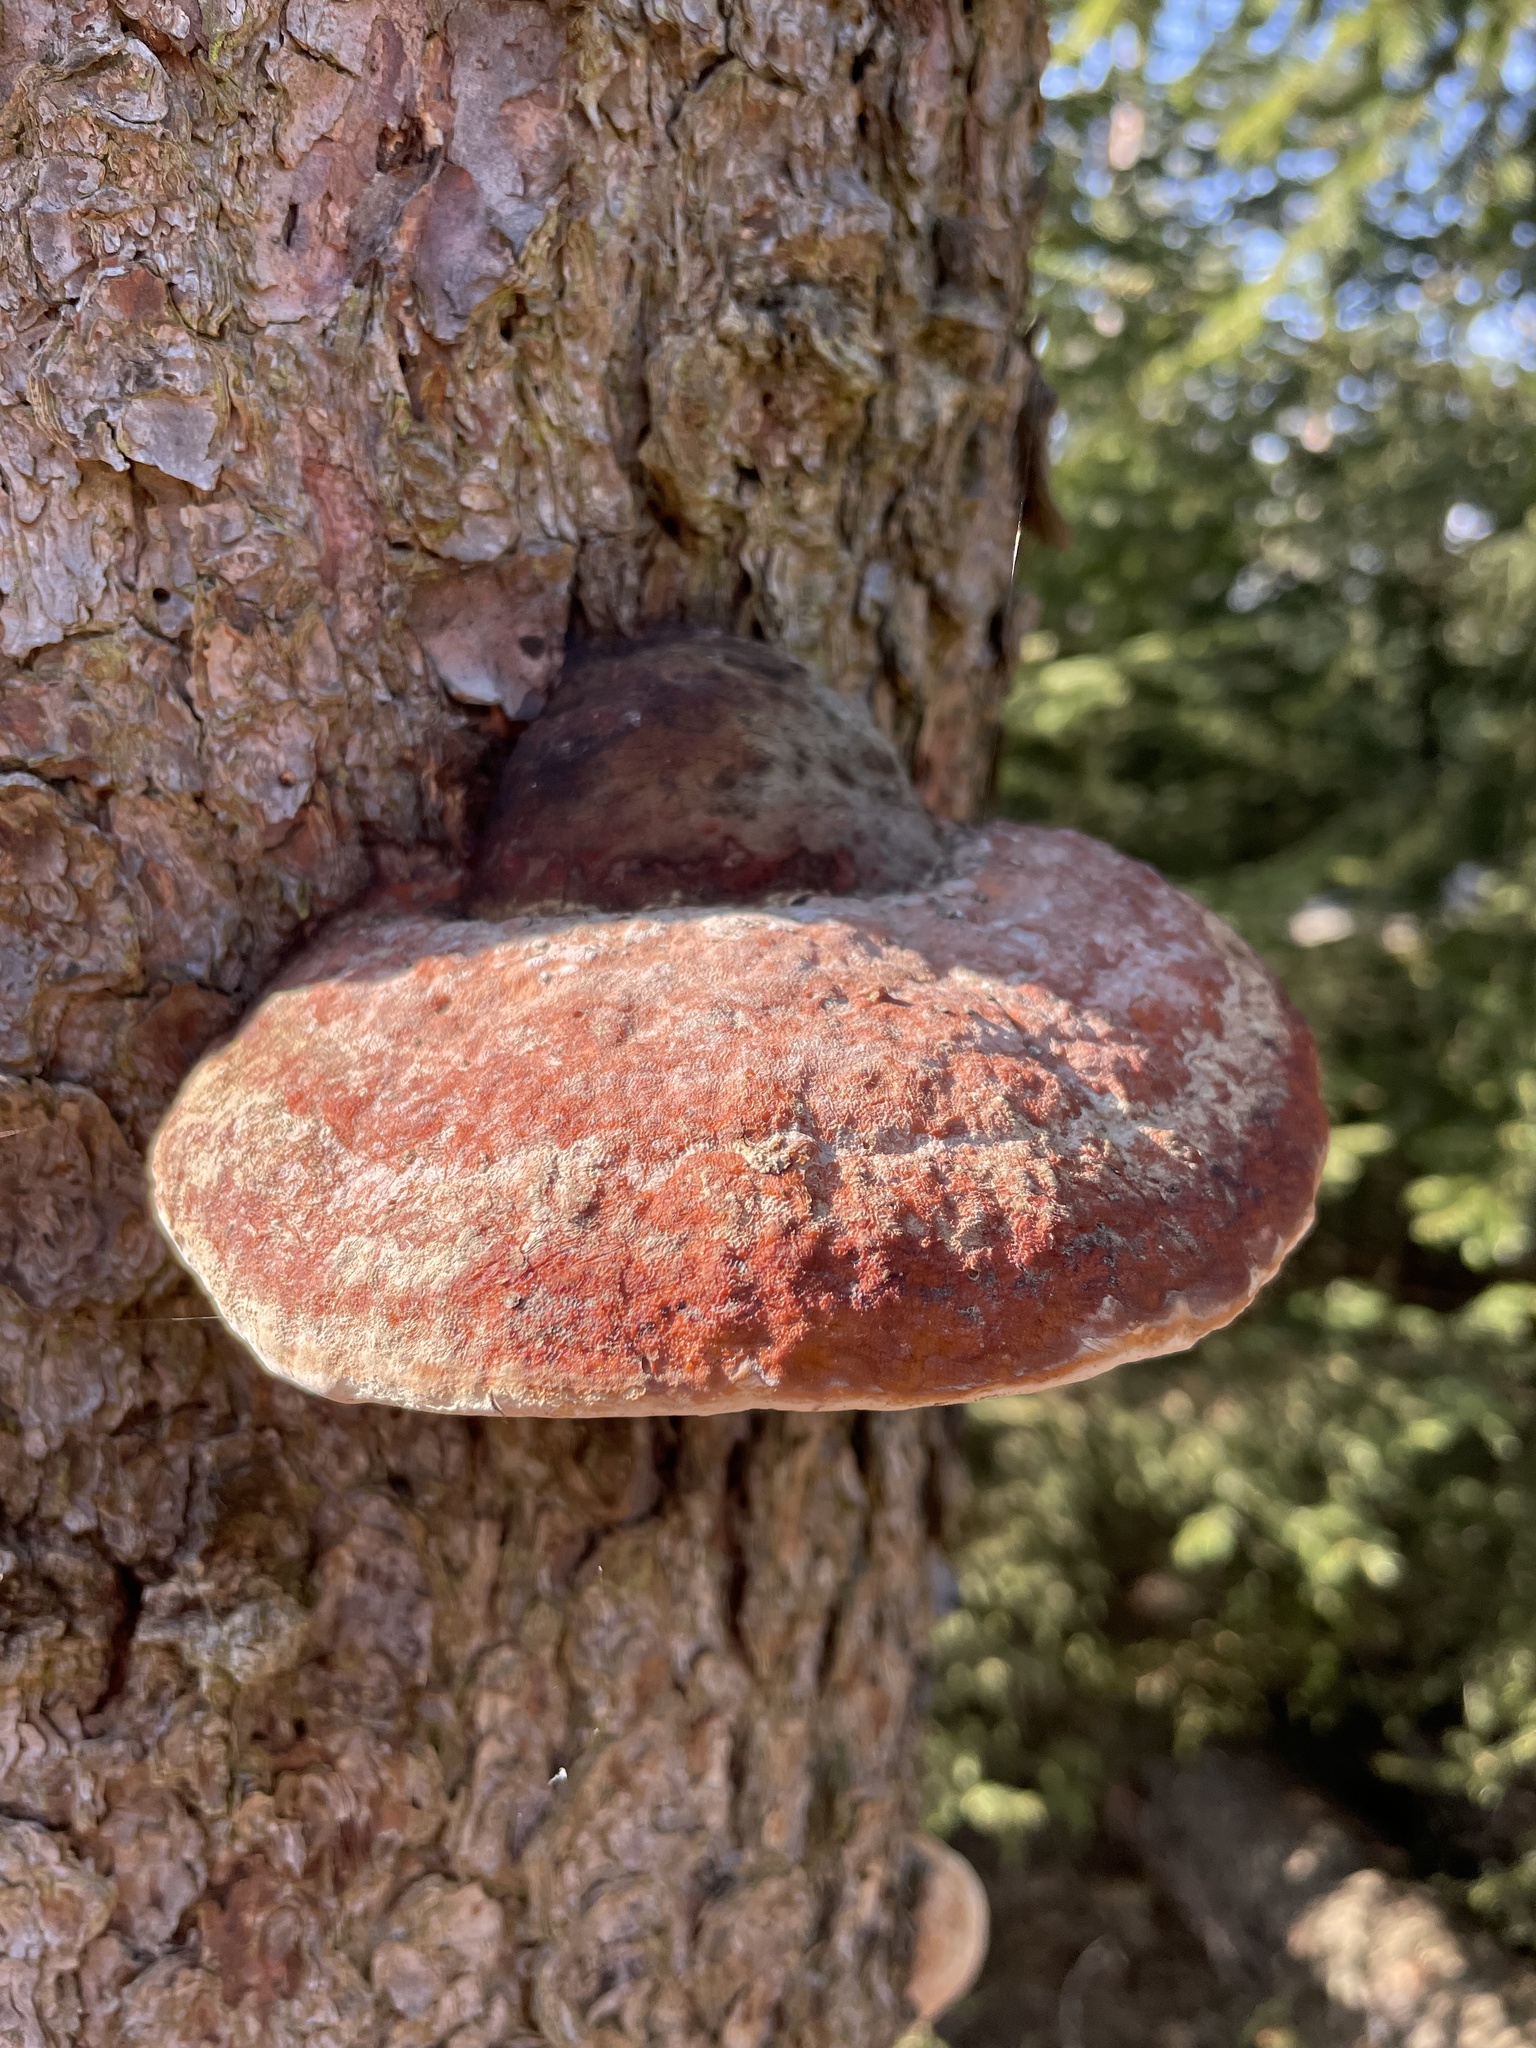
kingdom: Fungi
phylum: Basidiomycota
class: Agaricomycetes
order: Polyporales
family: Fomitopsidaceae
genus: Fomitopsis
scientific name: Fomitopsis pinicola
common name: Red-belted bracket
